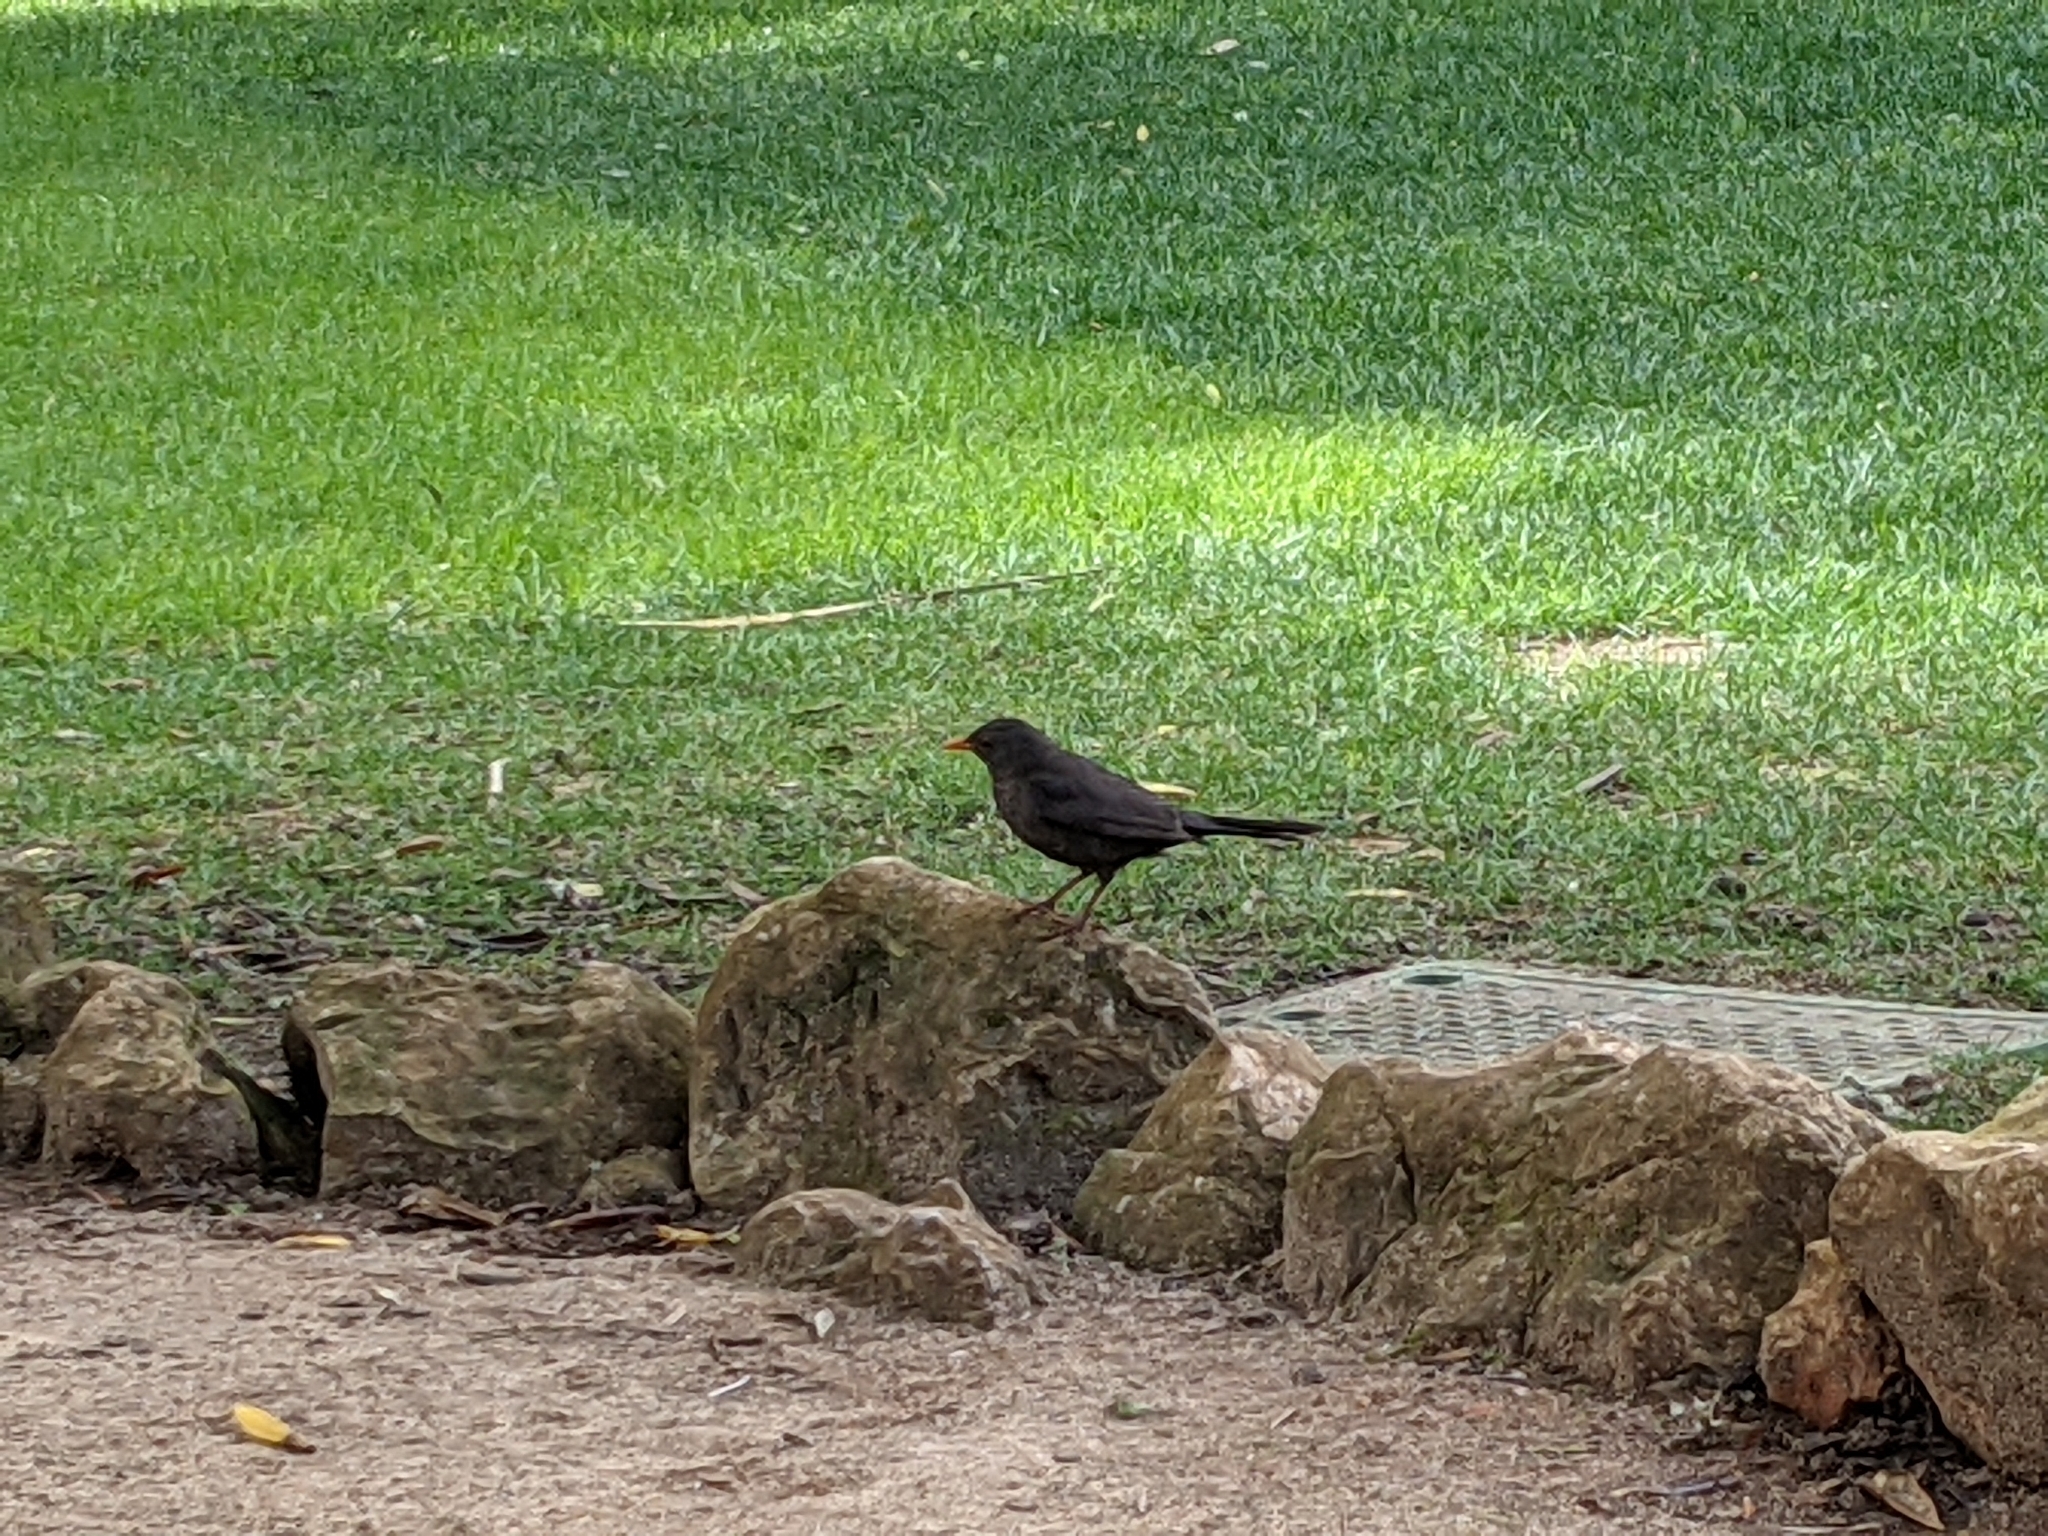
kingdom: Animalia
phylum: Chordata
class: Aves
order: Passeriformes
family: Turdidae
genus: Turdus
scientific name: Turdus merula
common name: Common blackbird
